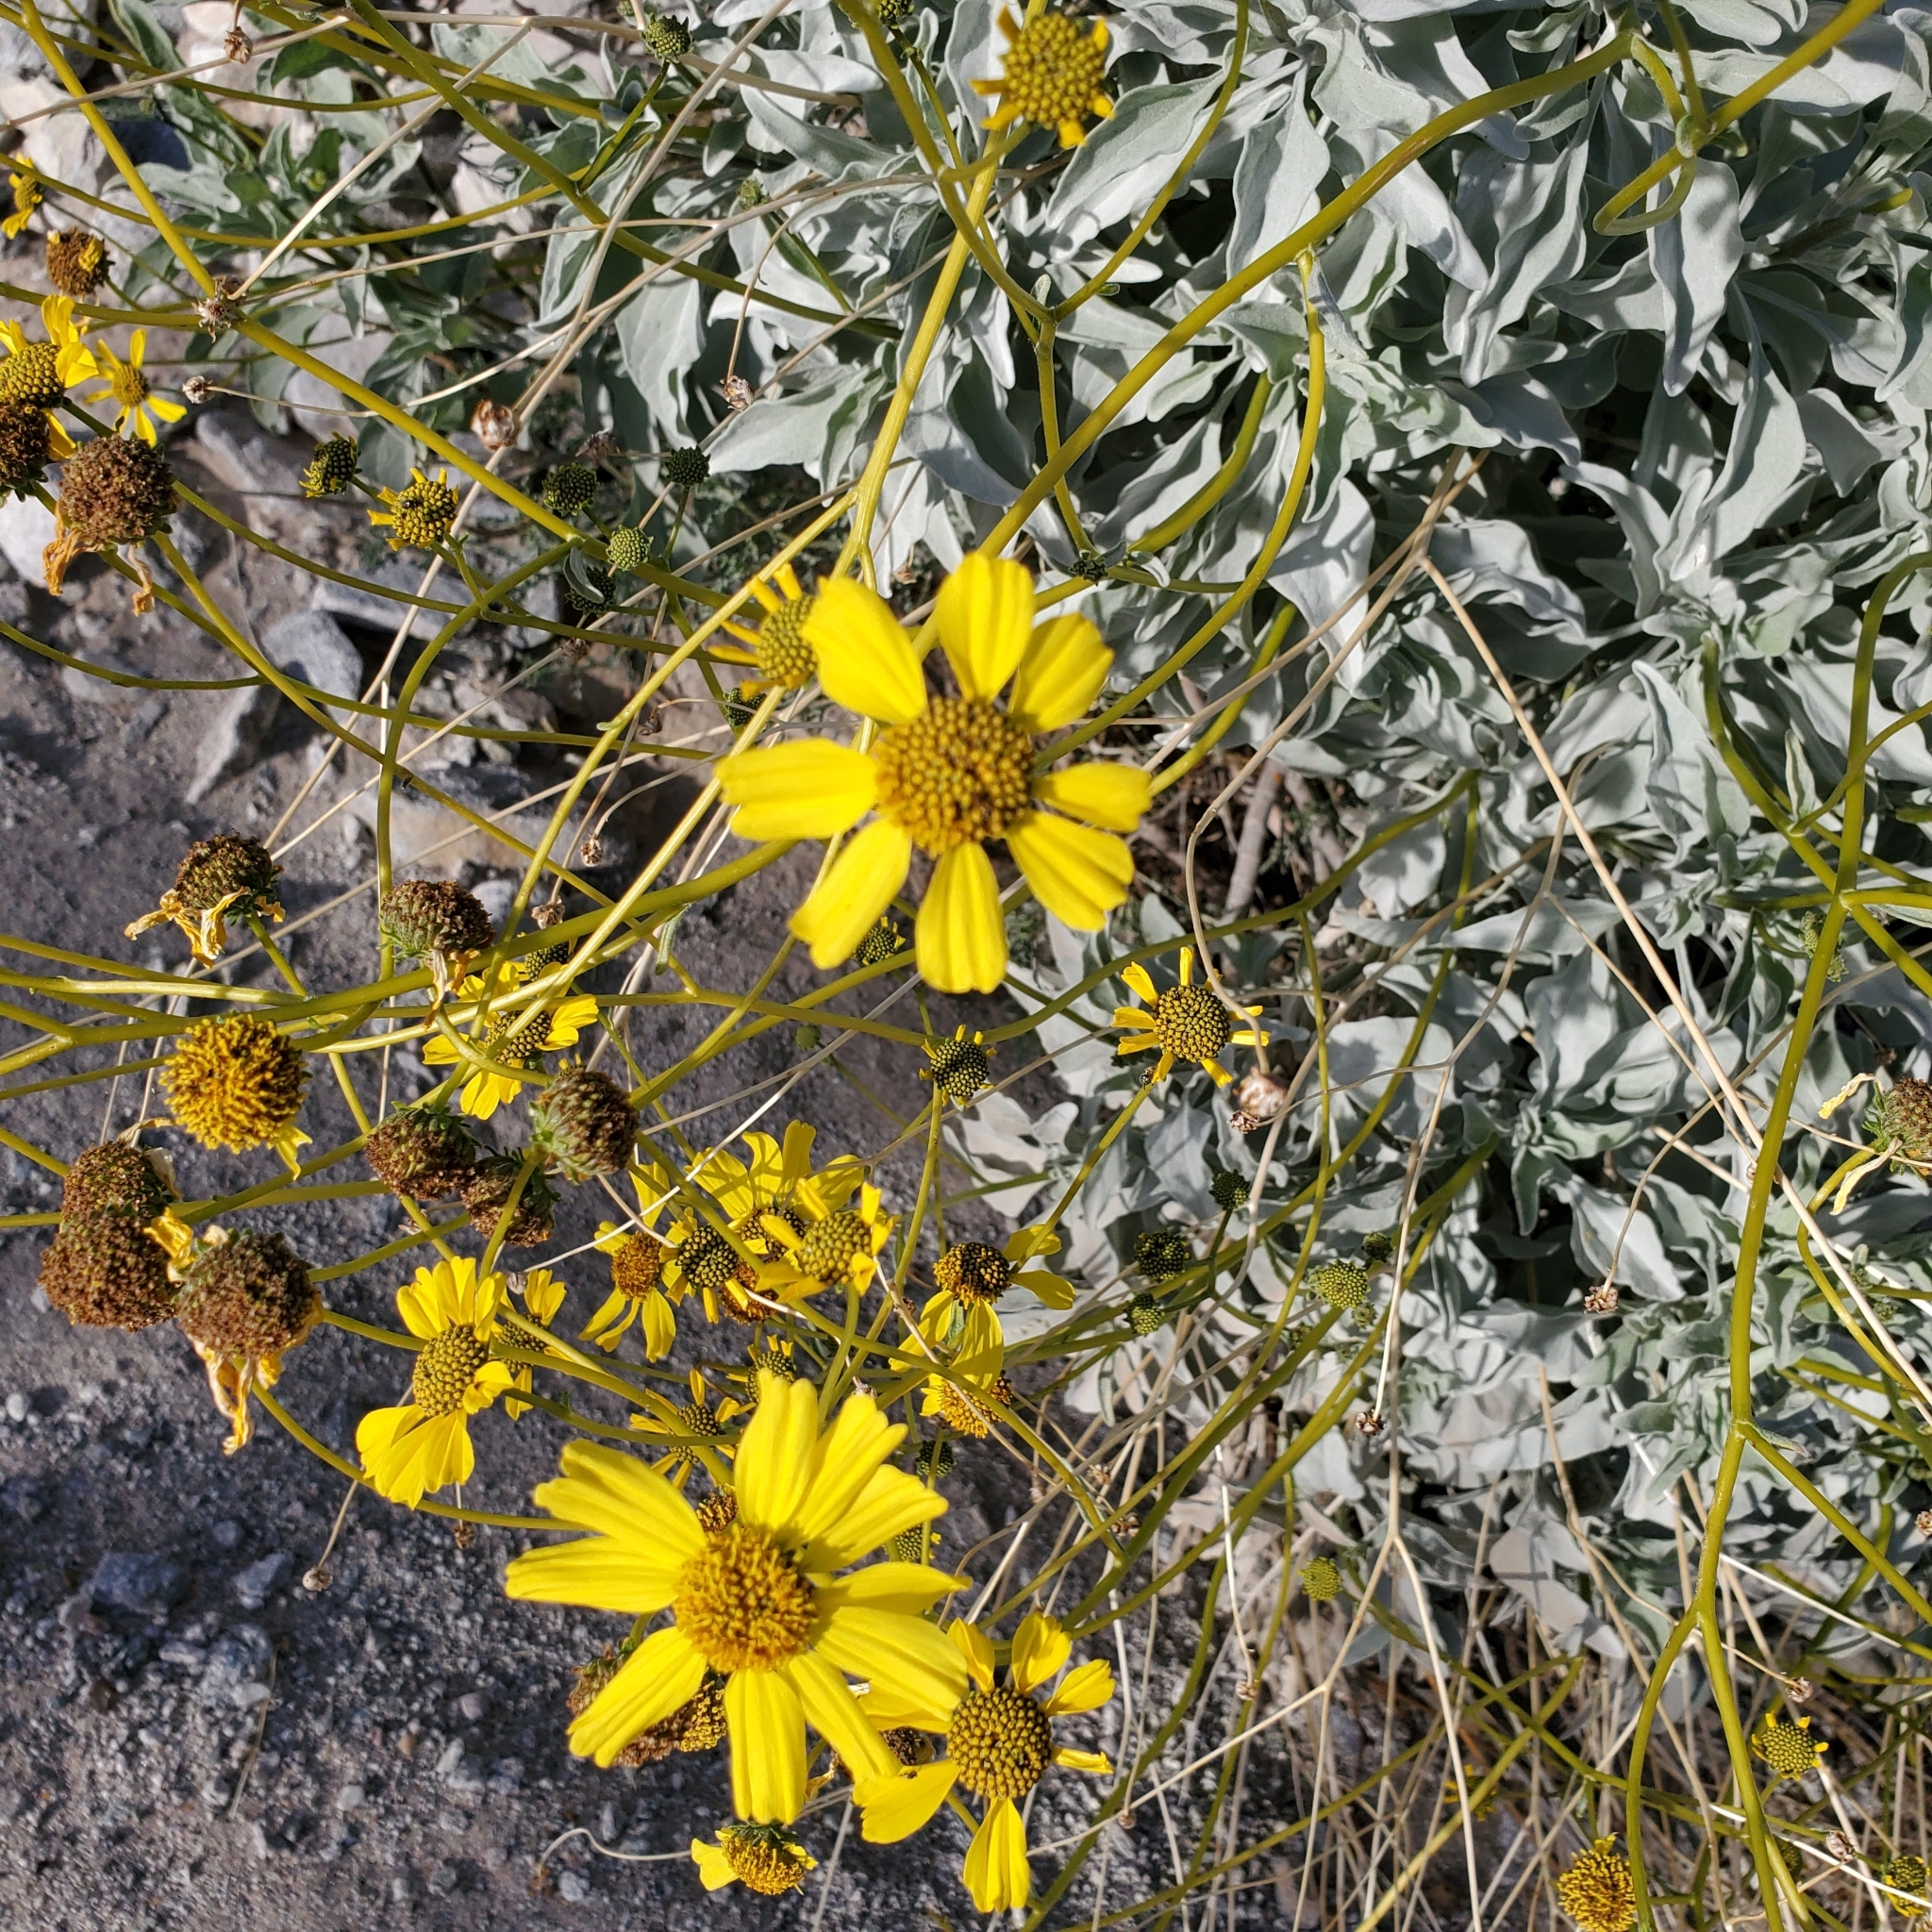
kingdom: Plantae
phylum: Tracheophyta
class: Magnoliopsida
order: Asterales
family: Asteraceae
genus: Encelia
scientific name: Encelia farinosa
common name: Brittlebush
